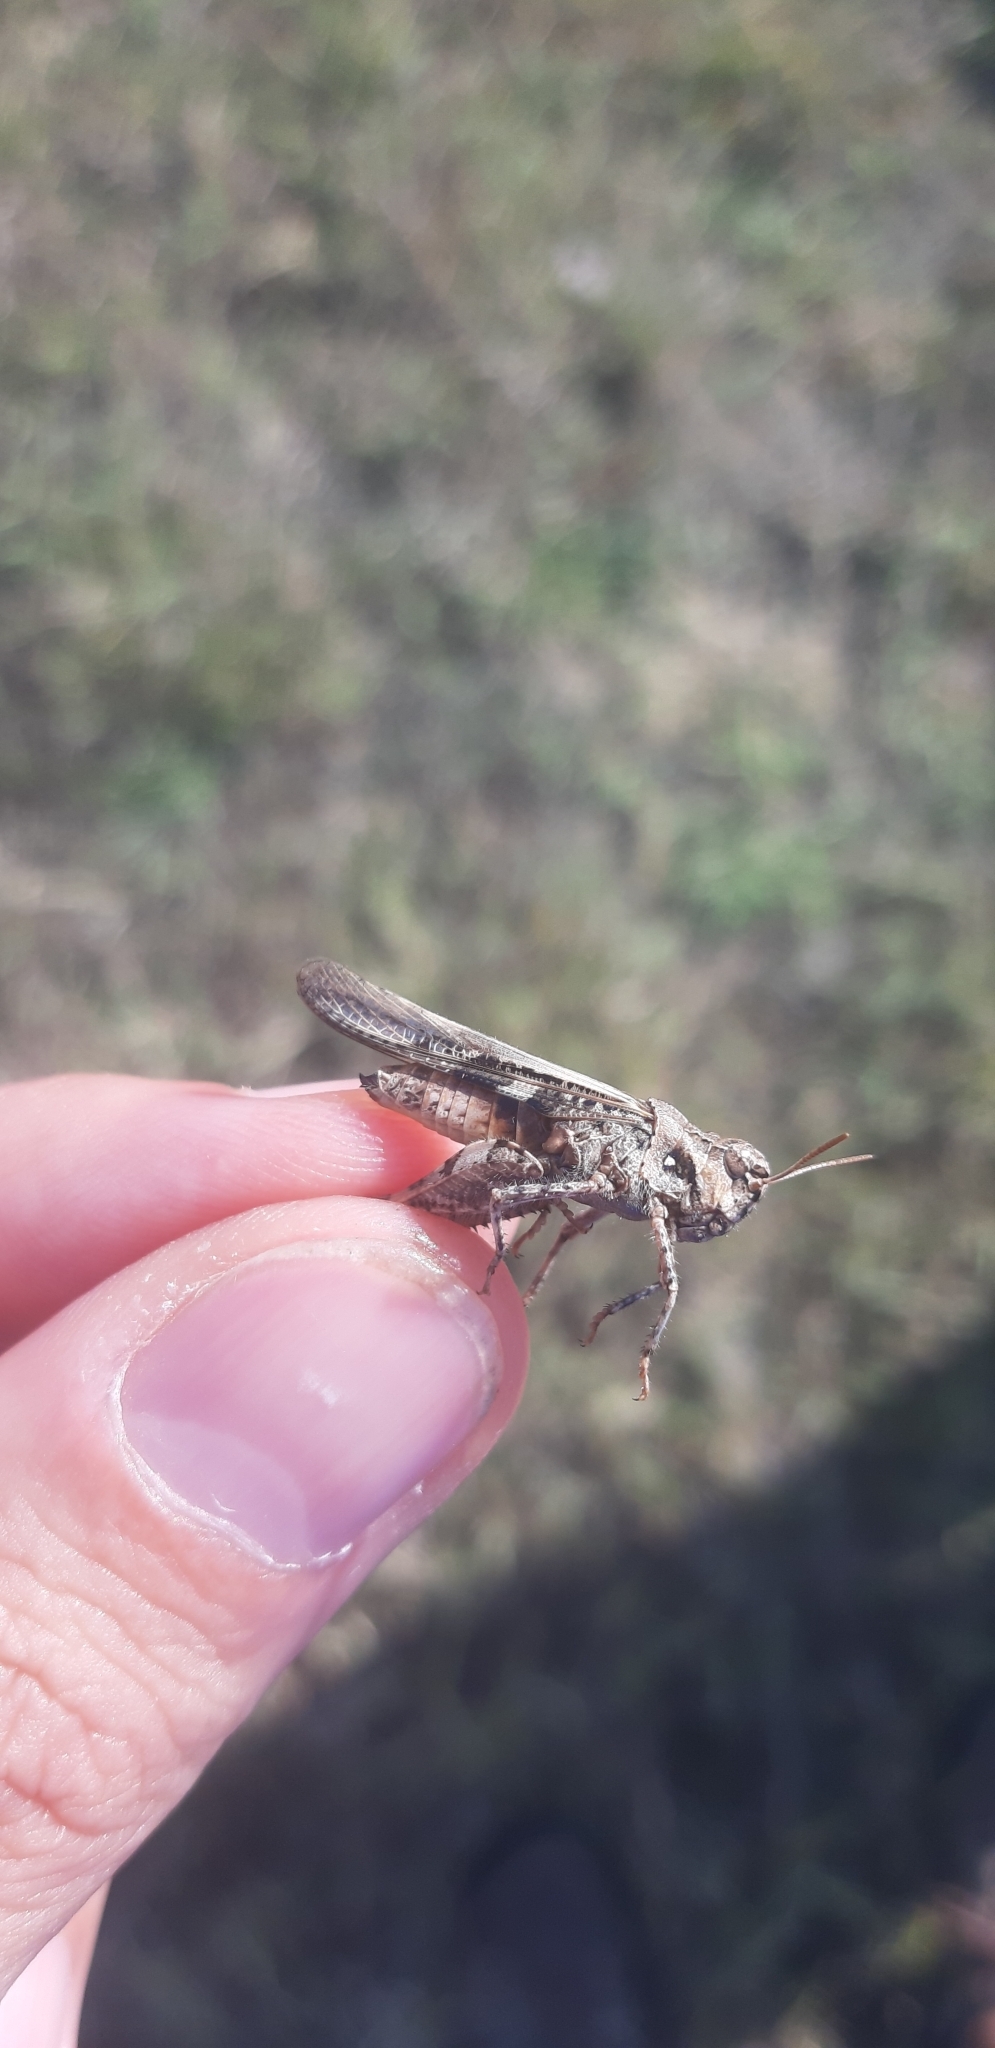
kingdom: Animalia
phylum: Arthropoda
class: Insecta
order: Orthoptera
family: Acrididae
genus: Acrotylus
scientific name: Acrotylus insubricus
